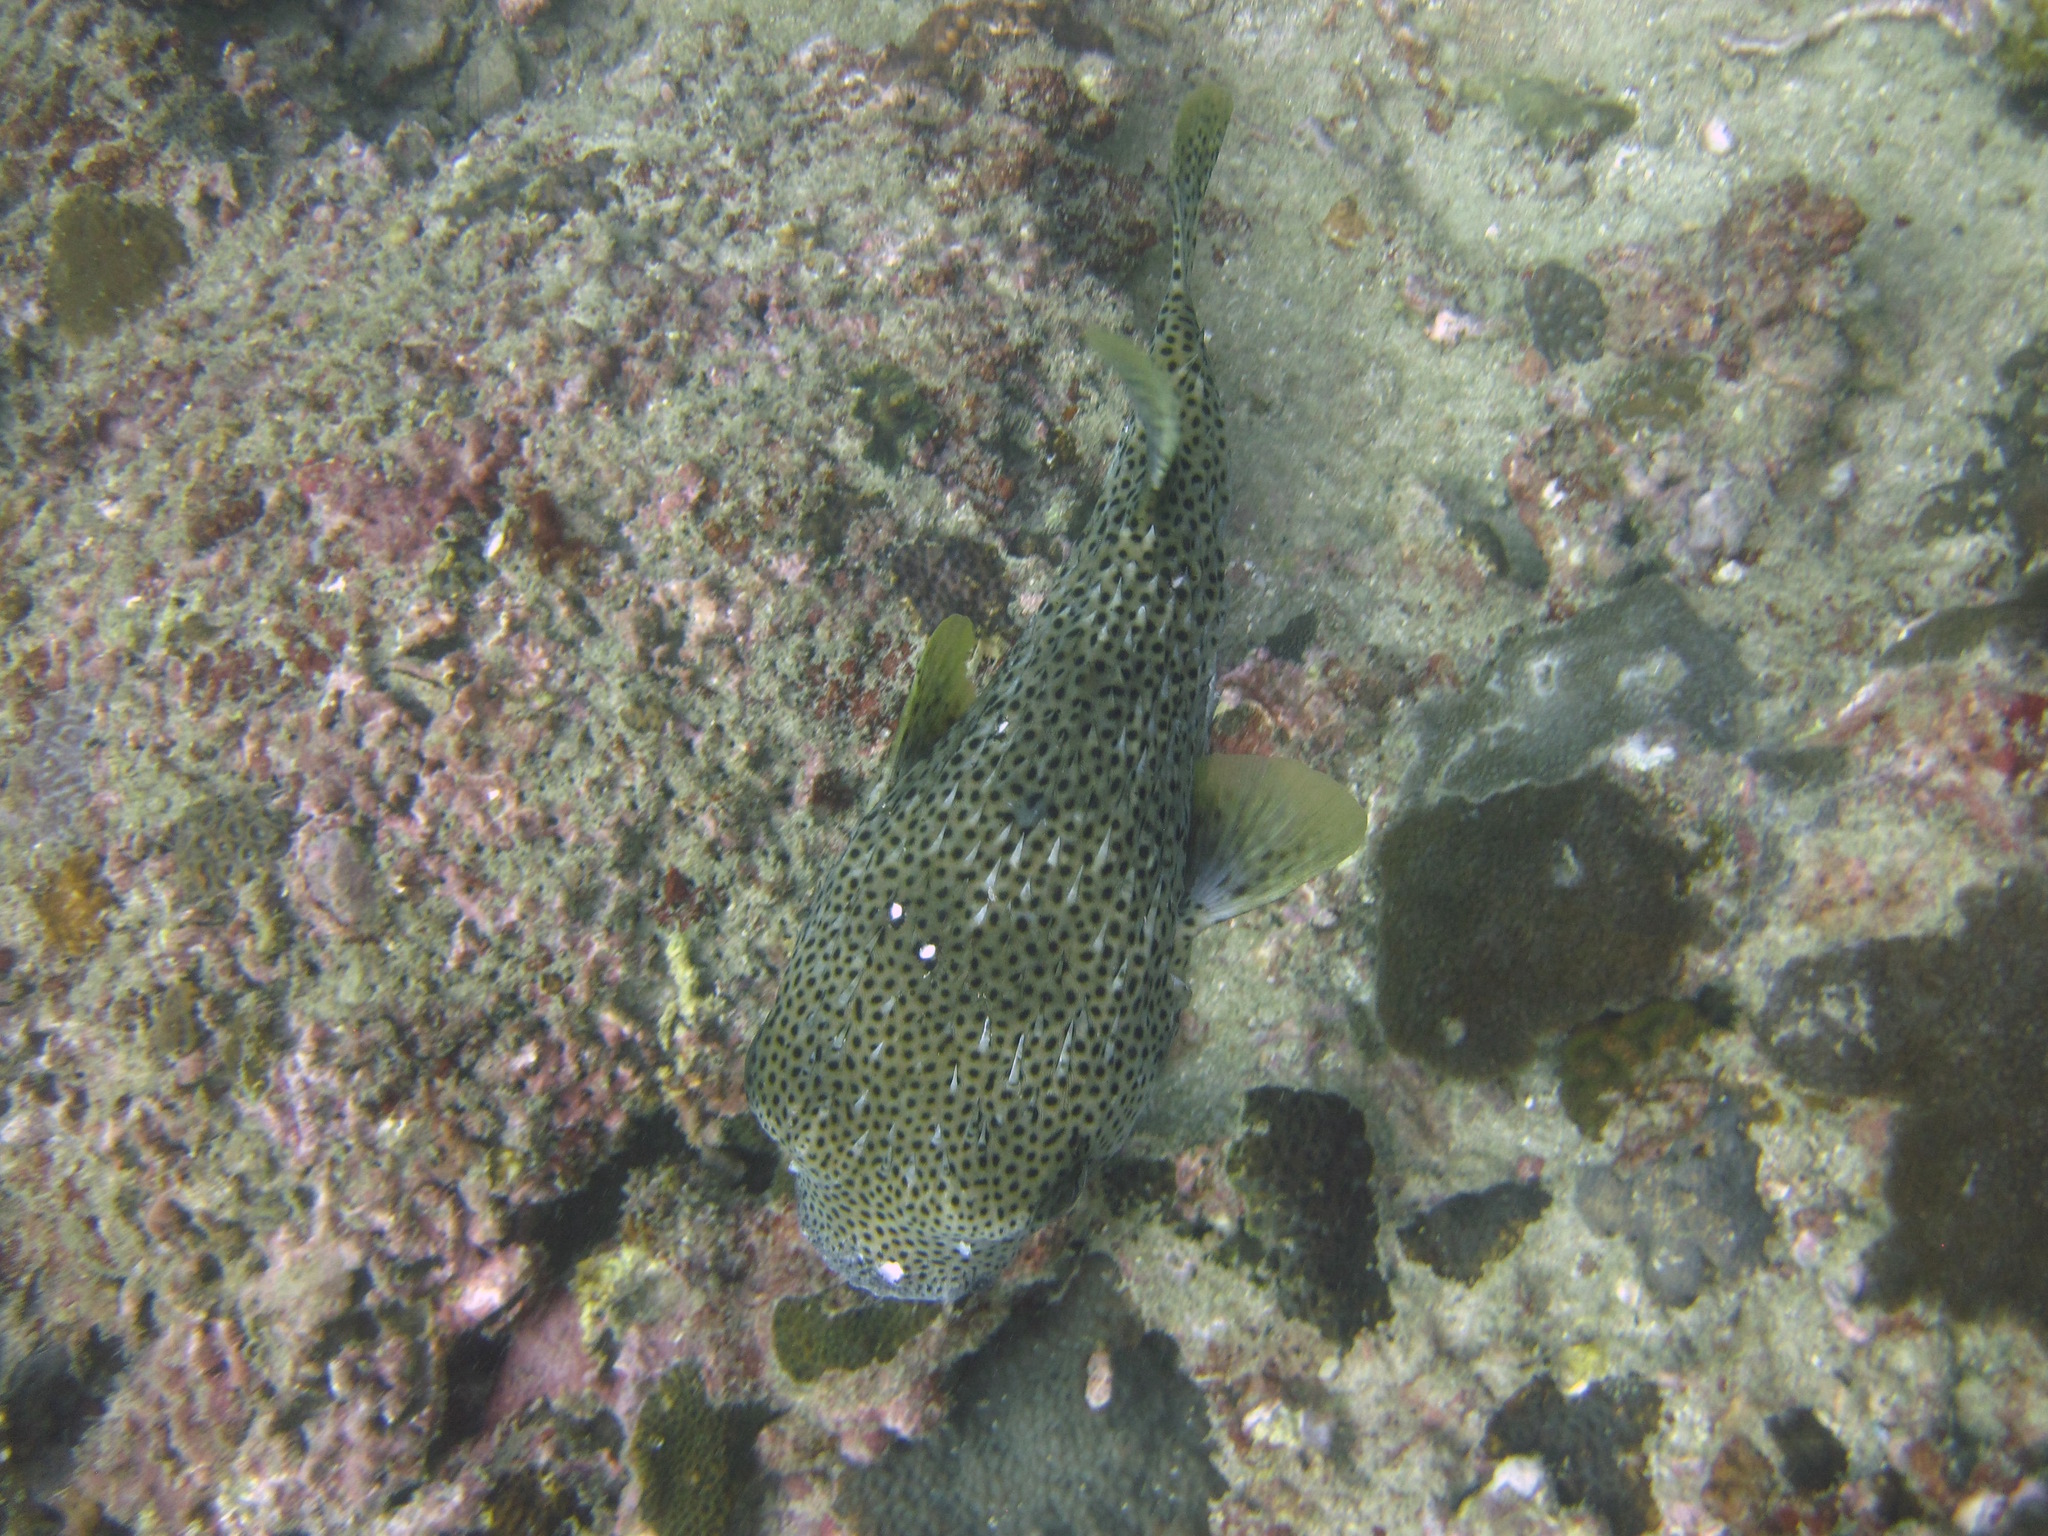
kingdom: Animalia
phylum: Chordata
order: Tetraodontiformes
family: Diodontidae
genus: Diodon
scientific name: Diodon hystrix
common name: Giant porcupinefish
